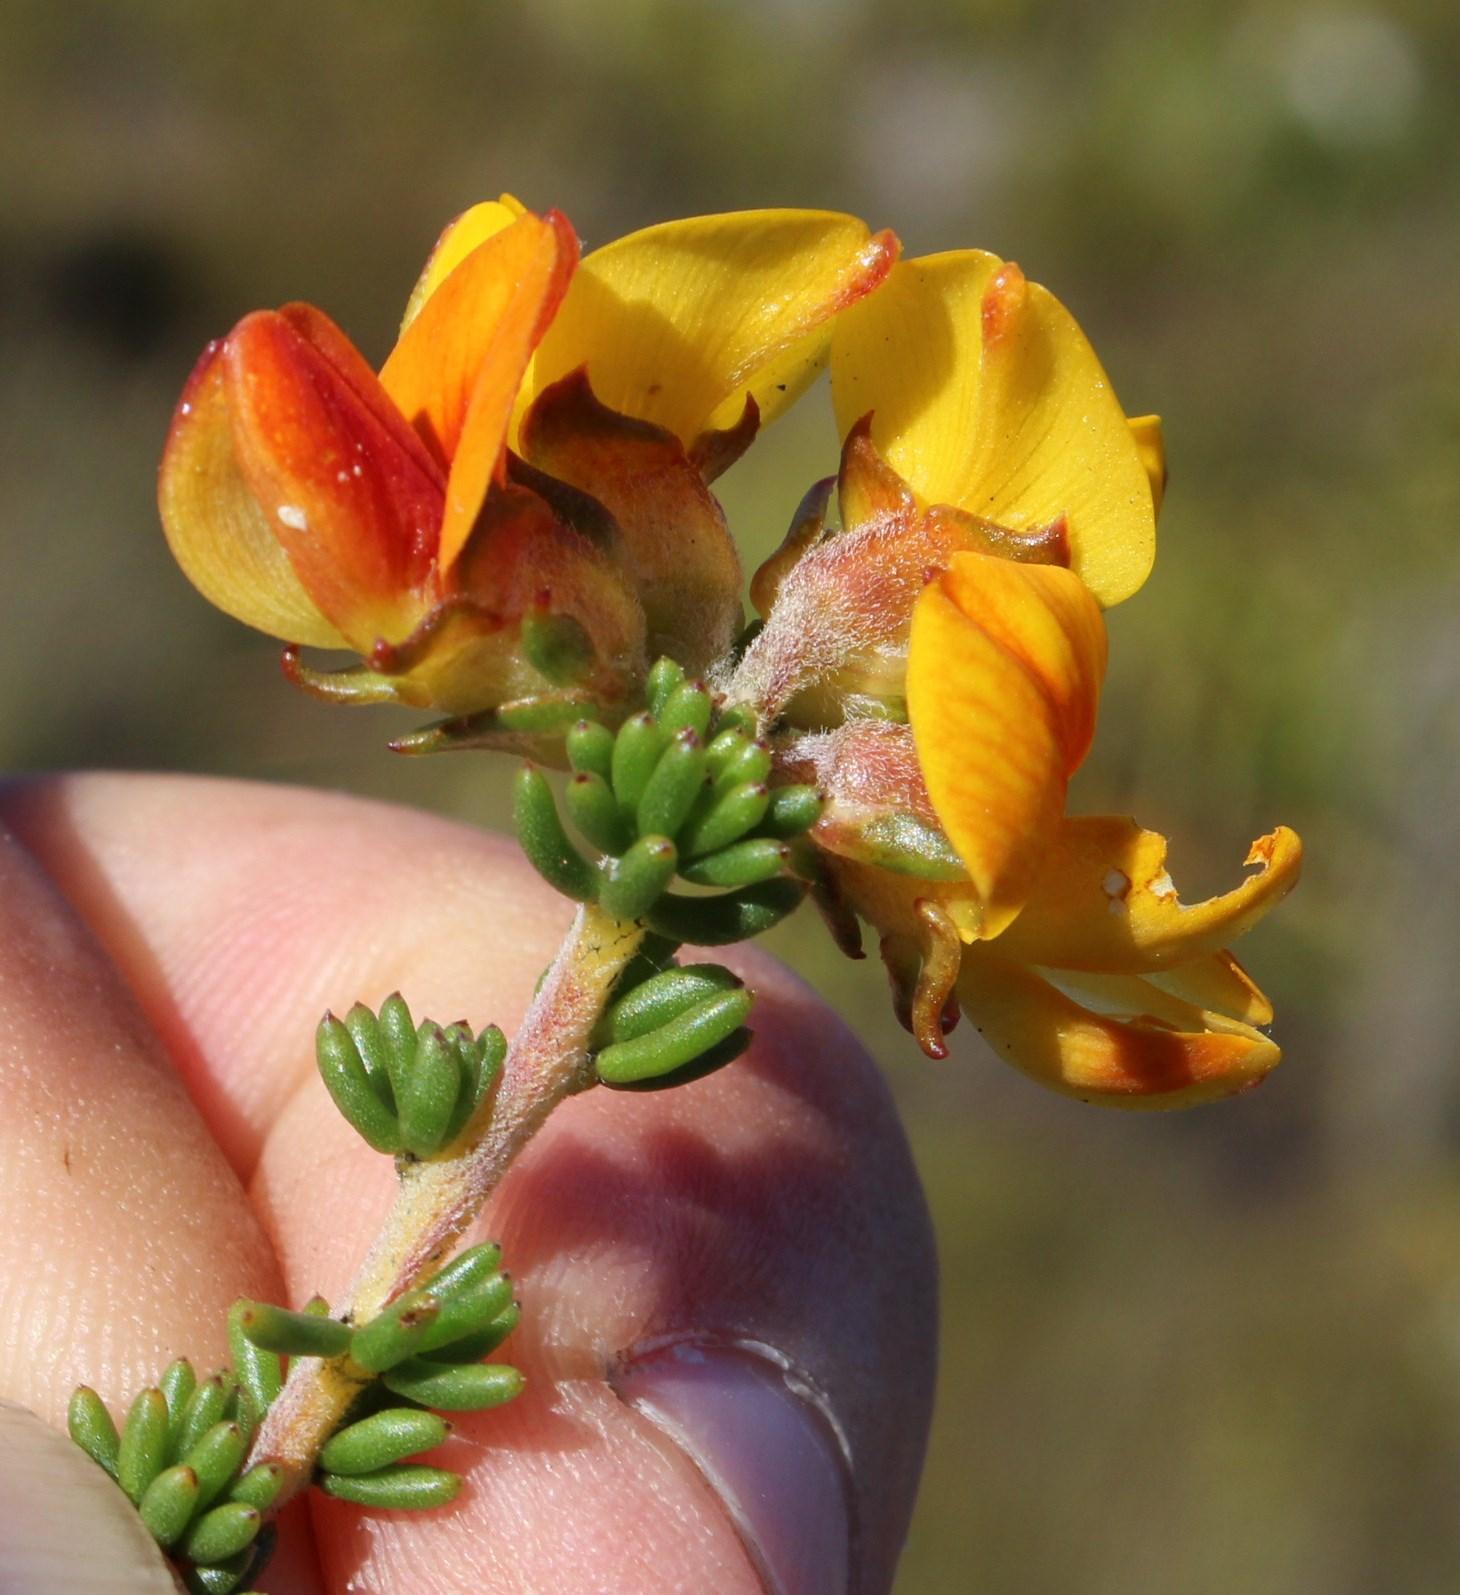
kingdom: Plantae
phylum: Tracheophyta
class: Magnoliopsida
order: Fabales
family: Fabaceae
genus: Aspalathus
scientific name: Aspalathus carnosa
